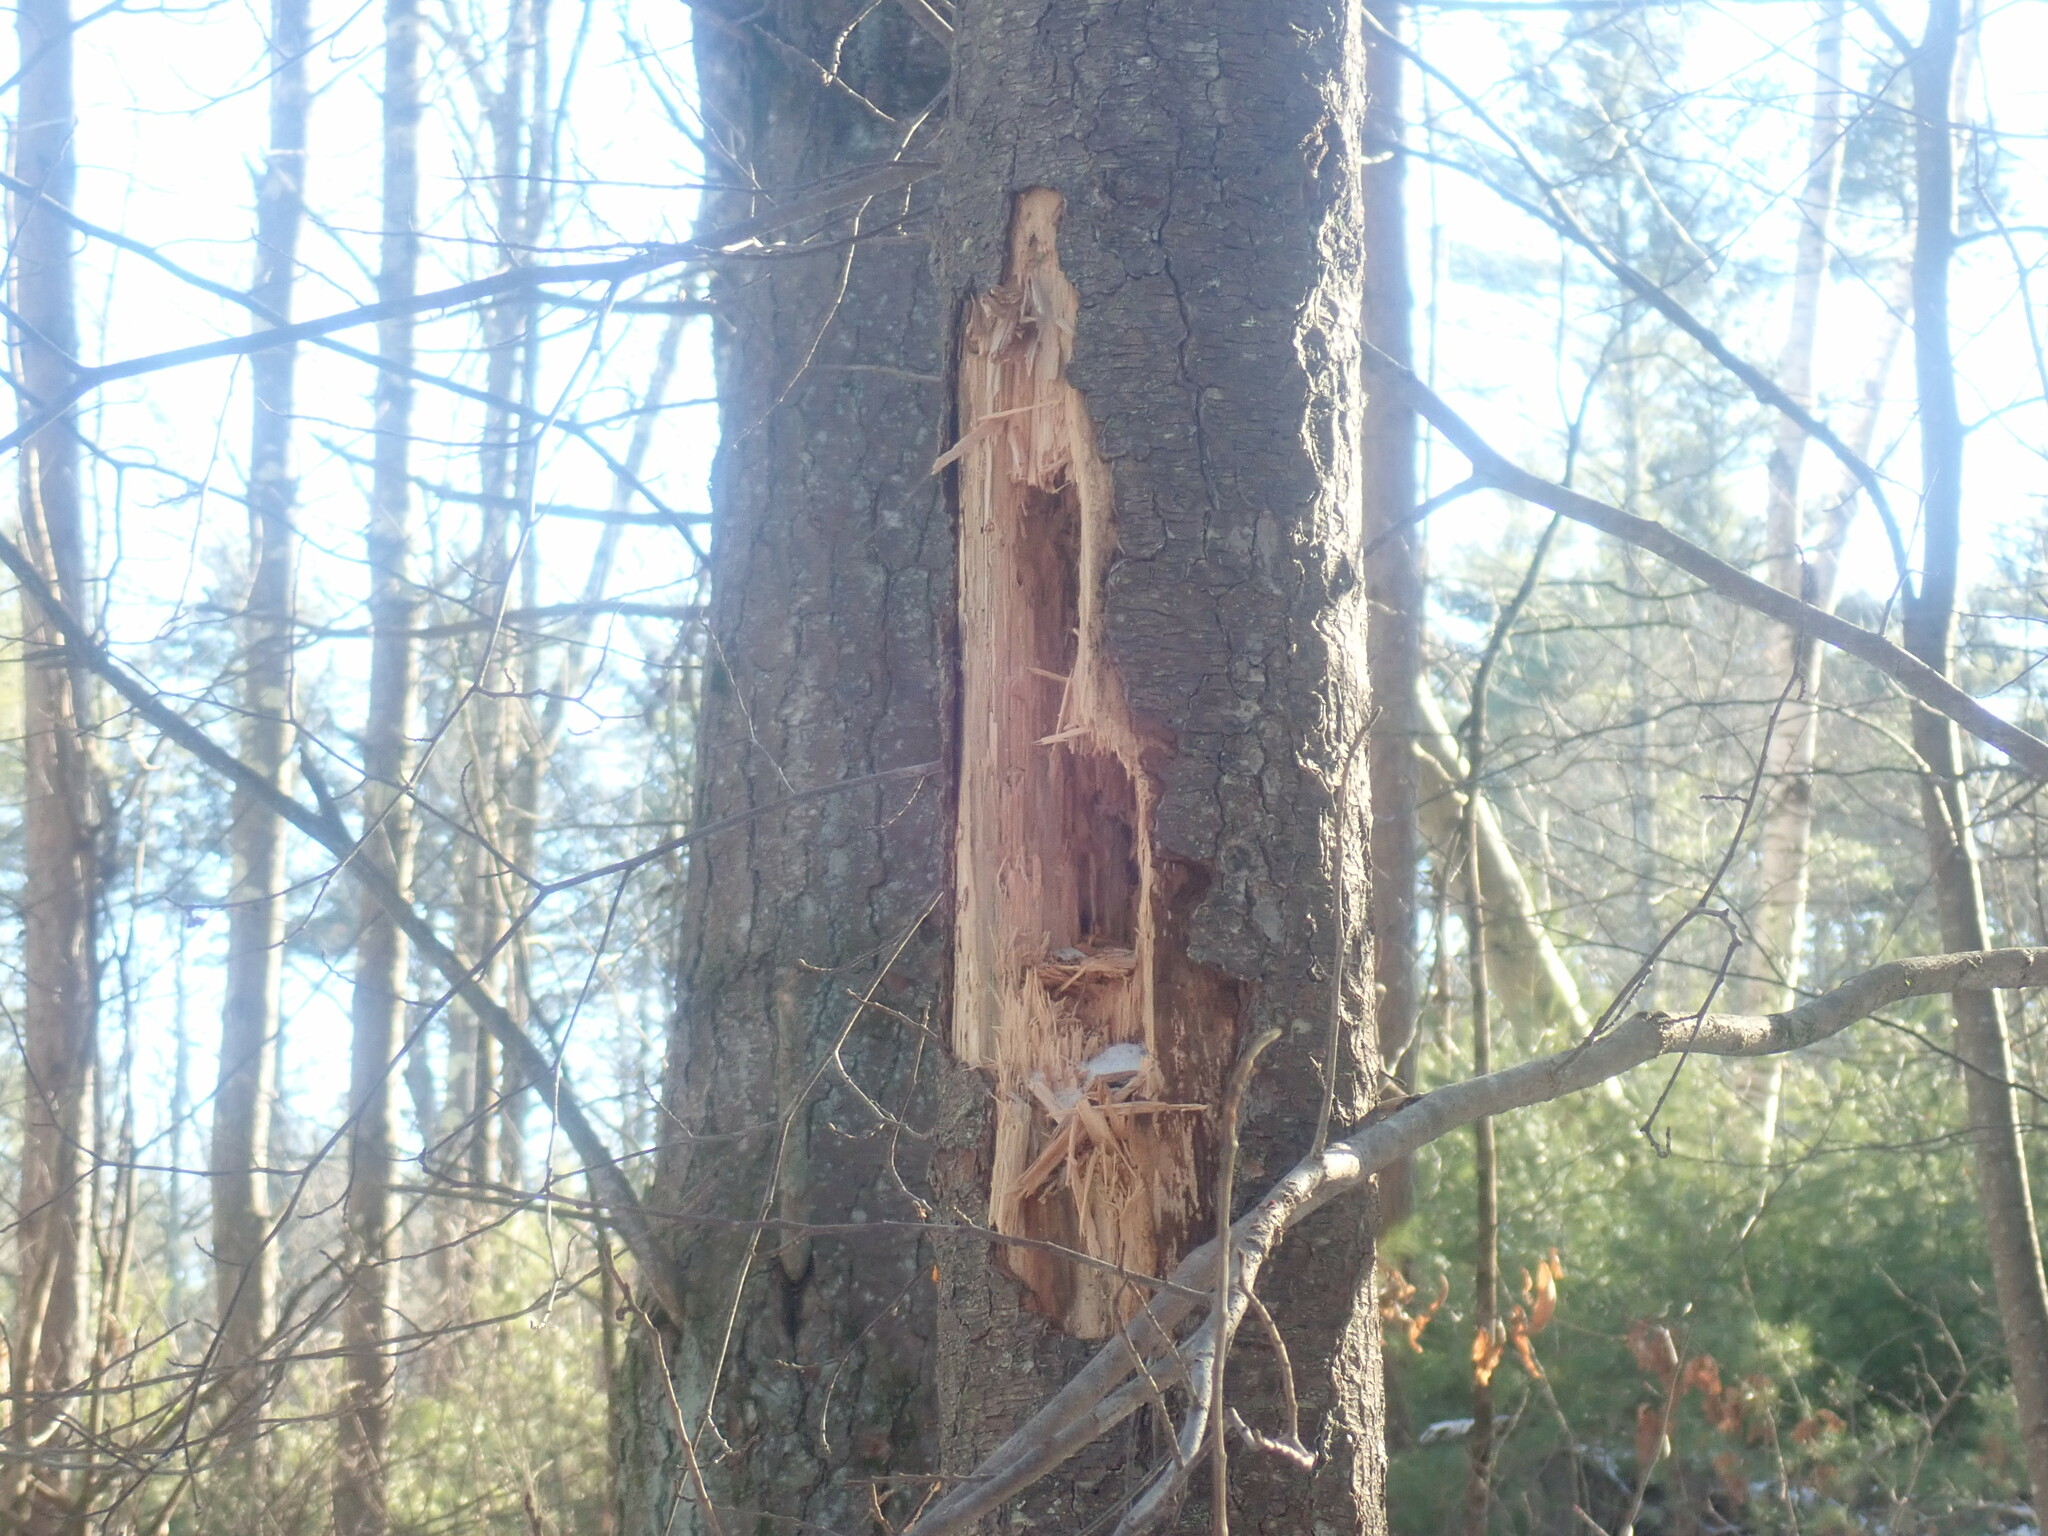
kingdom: Animalia
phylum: Chordata
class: Aves
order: Piciformes
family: Picidae
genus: Dryocopus
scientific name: Dryocopus pileatus
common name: Pileated woodpecker
